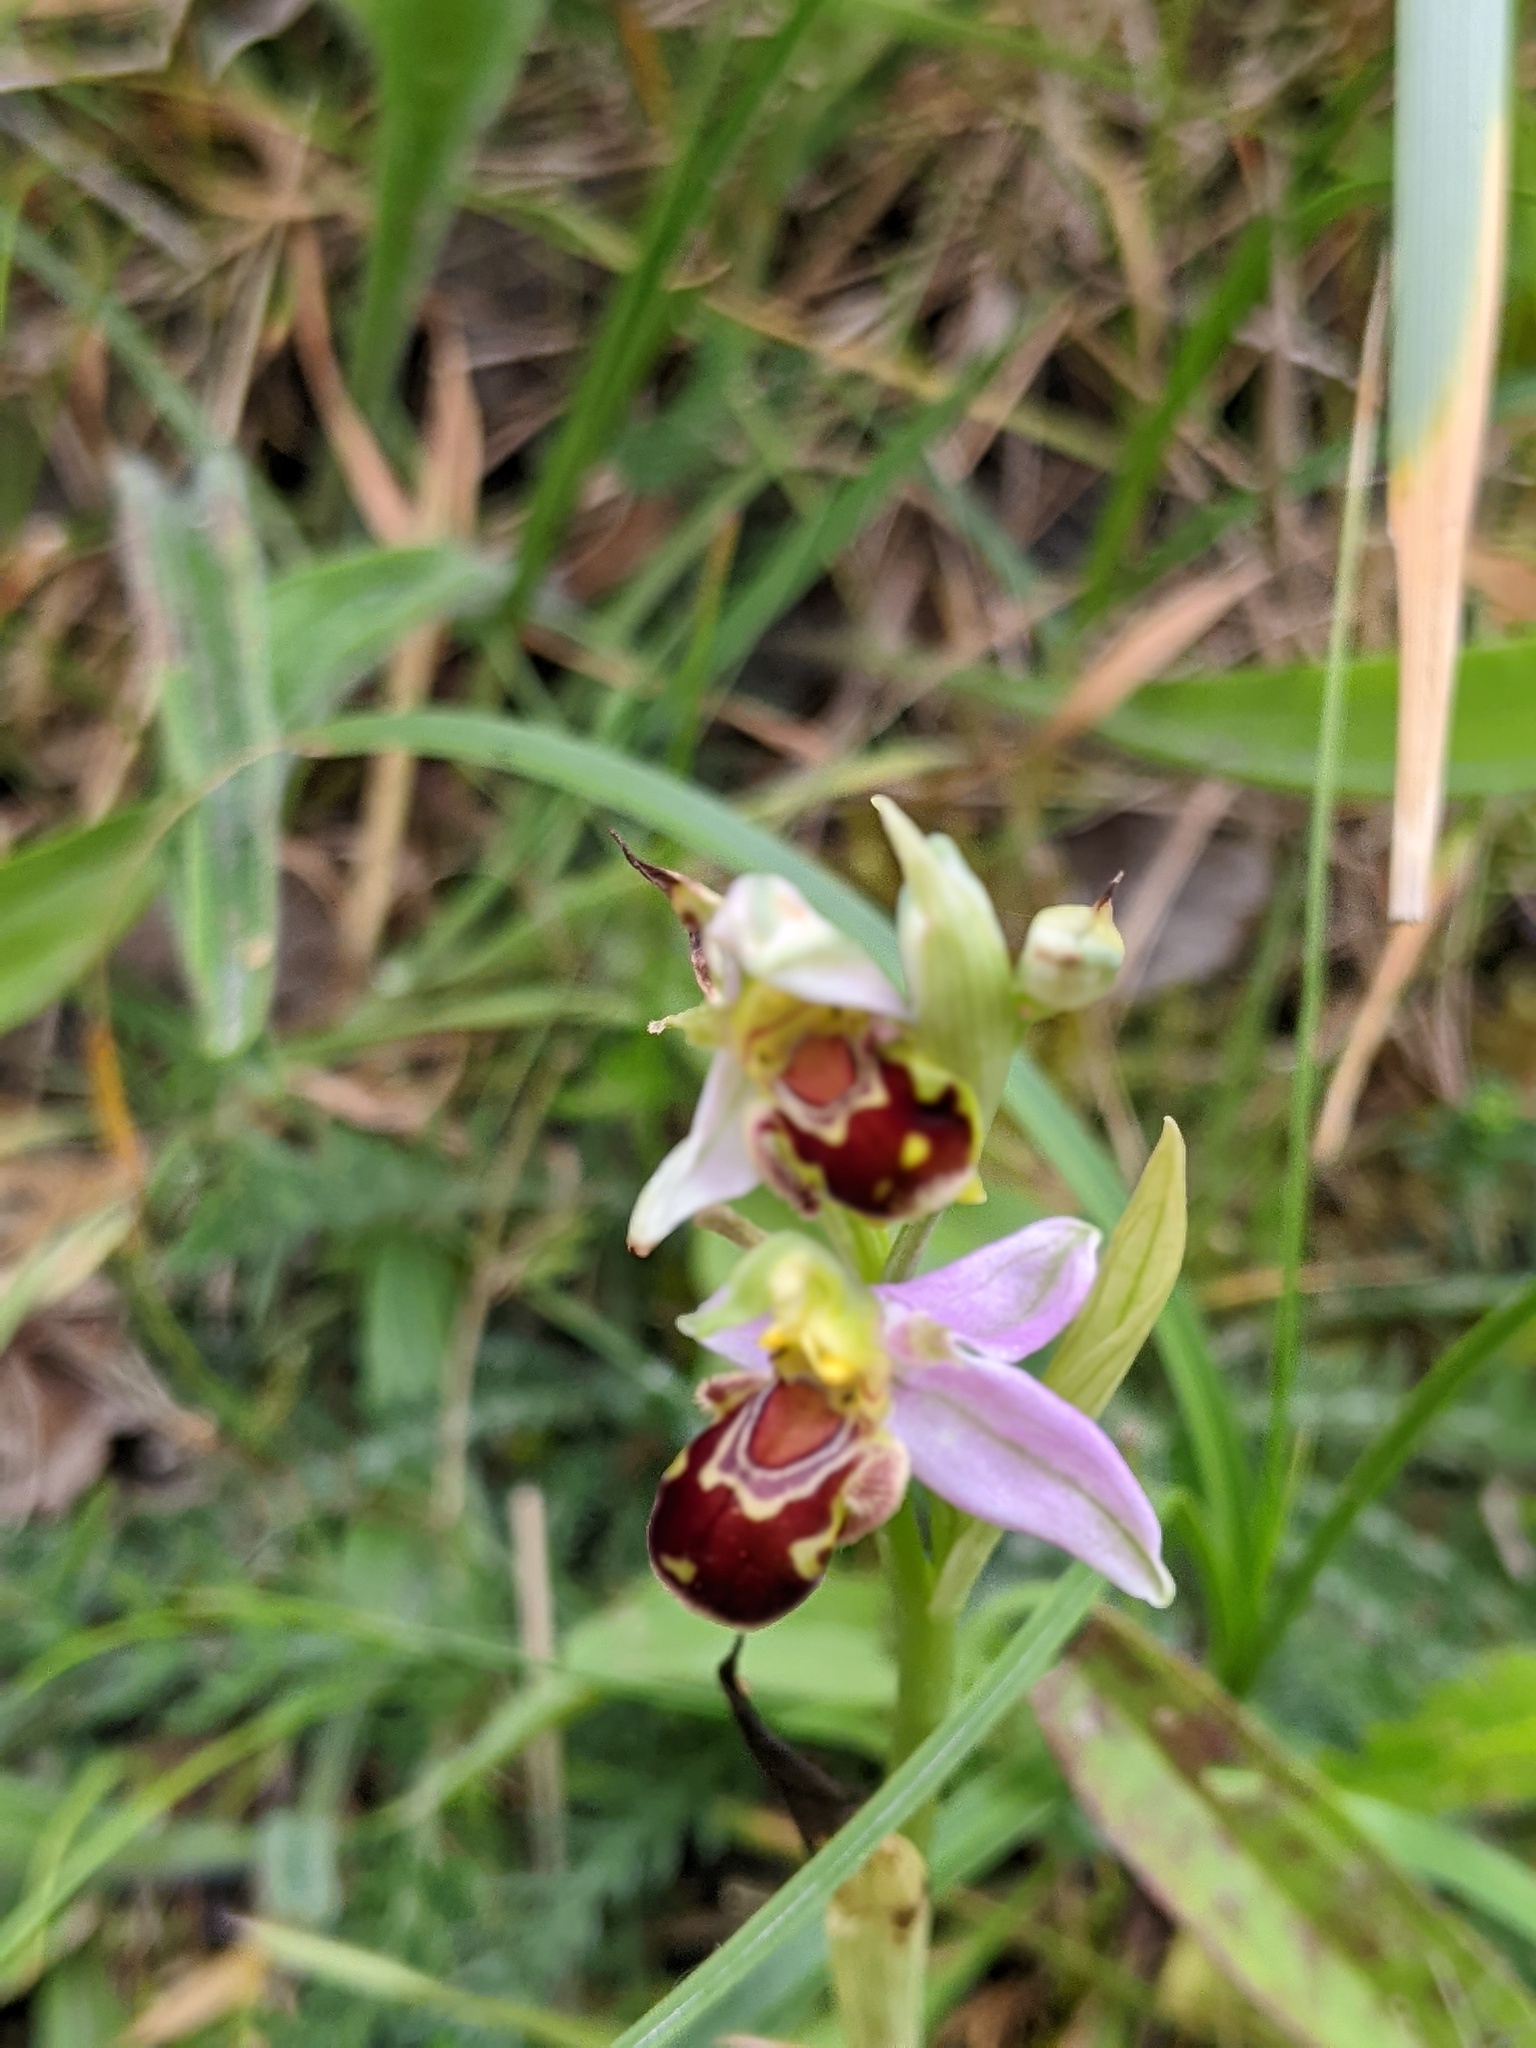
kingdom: Plantae
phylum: Tracheophyta
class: Liliopsida
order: Asparagales
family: Orchidaceae
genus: Ophrys
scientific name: Ophrys apifera
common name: Bee orchid
